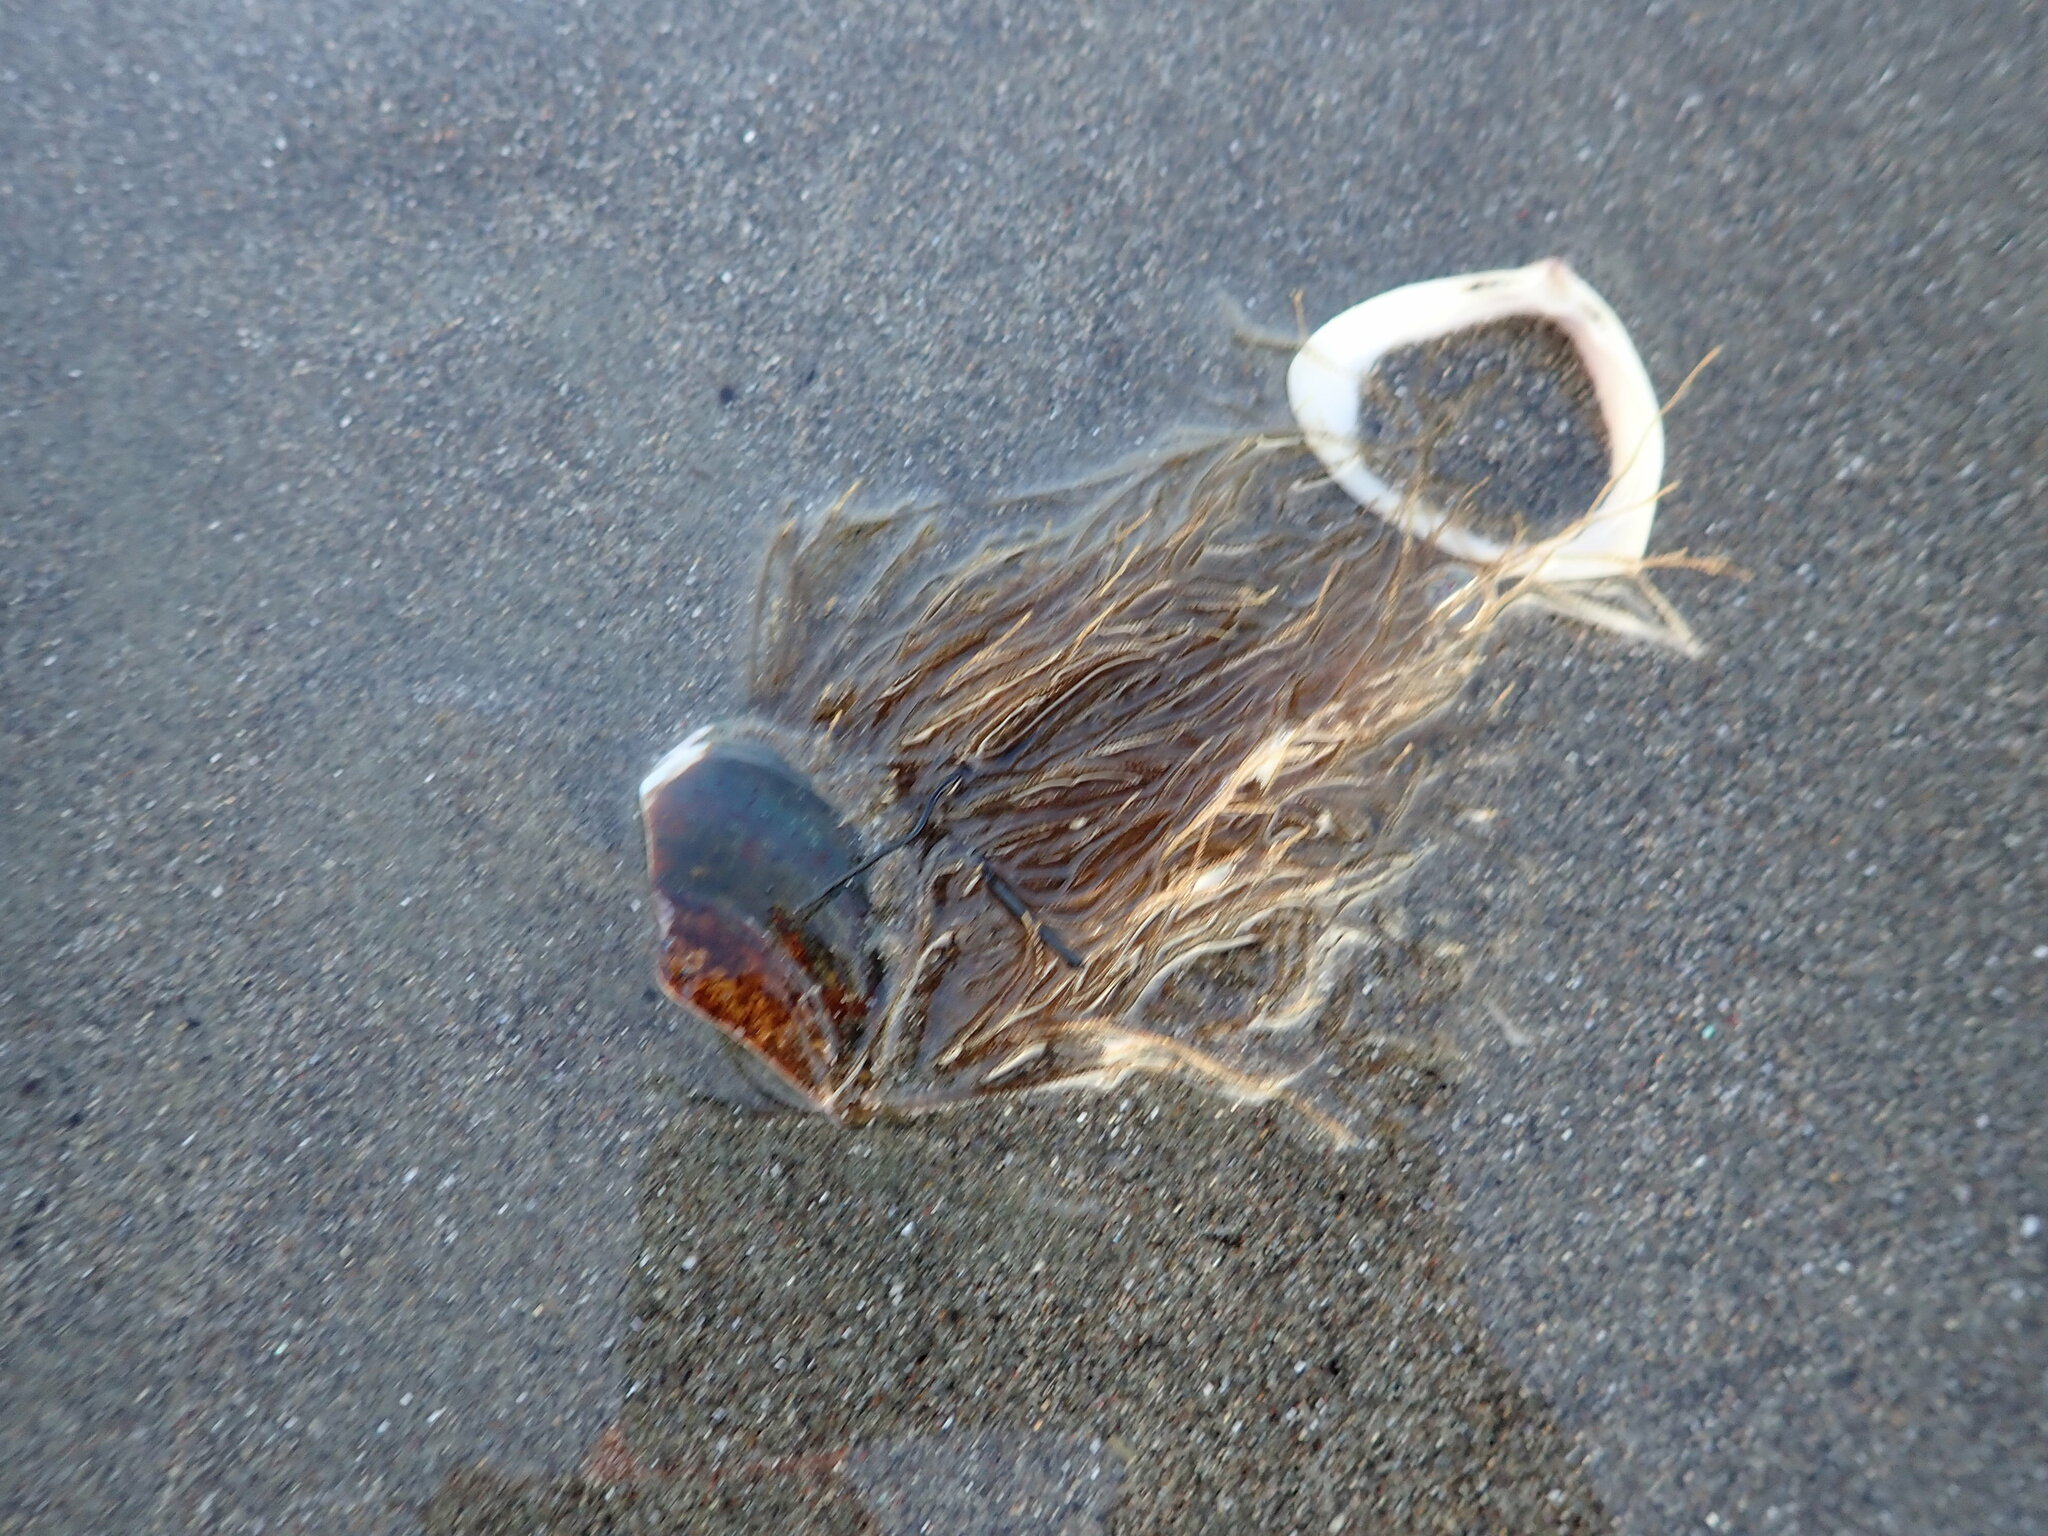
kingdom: Animalia
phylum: Cnidaria
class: Hydrozoa
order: Leptothecata
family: Sertulariidae
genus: Amphisbetia
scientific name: Amphisbetia bispinosa
